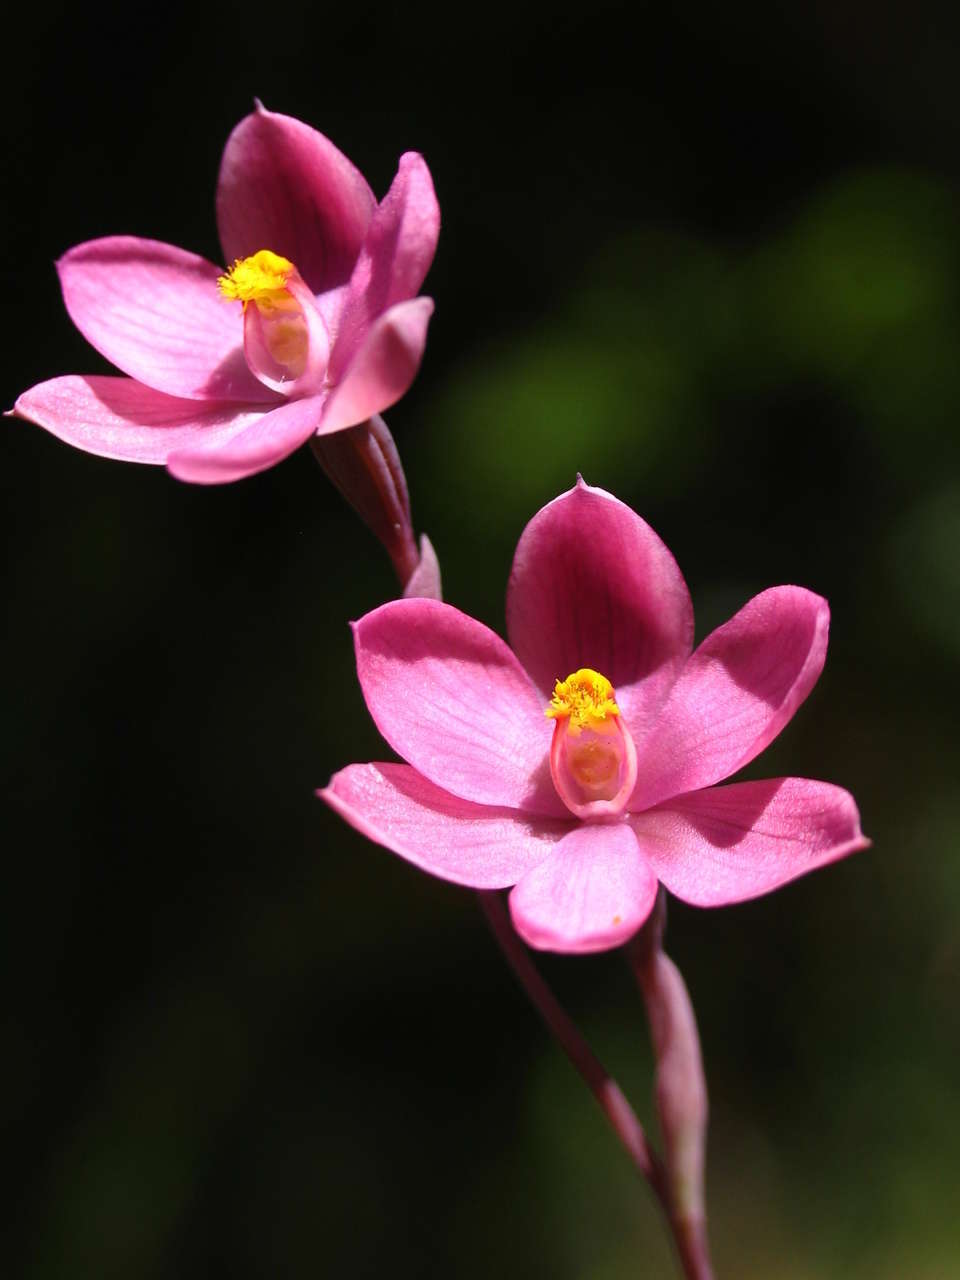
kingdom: Plantae
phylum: Tracheophyta
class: Liliopsida
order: Asparagales
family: Orchidaceae
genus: Thelymitra
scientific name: Thelymitra irregularis
